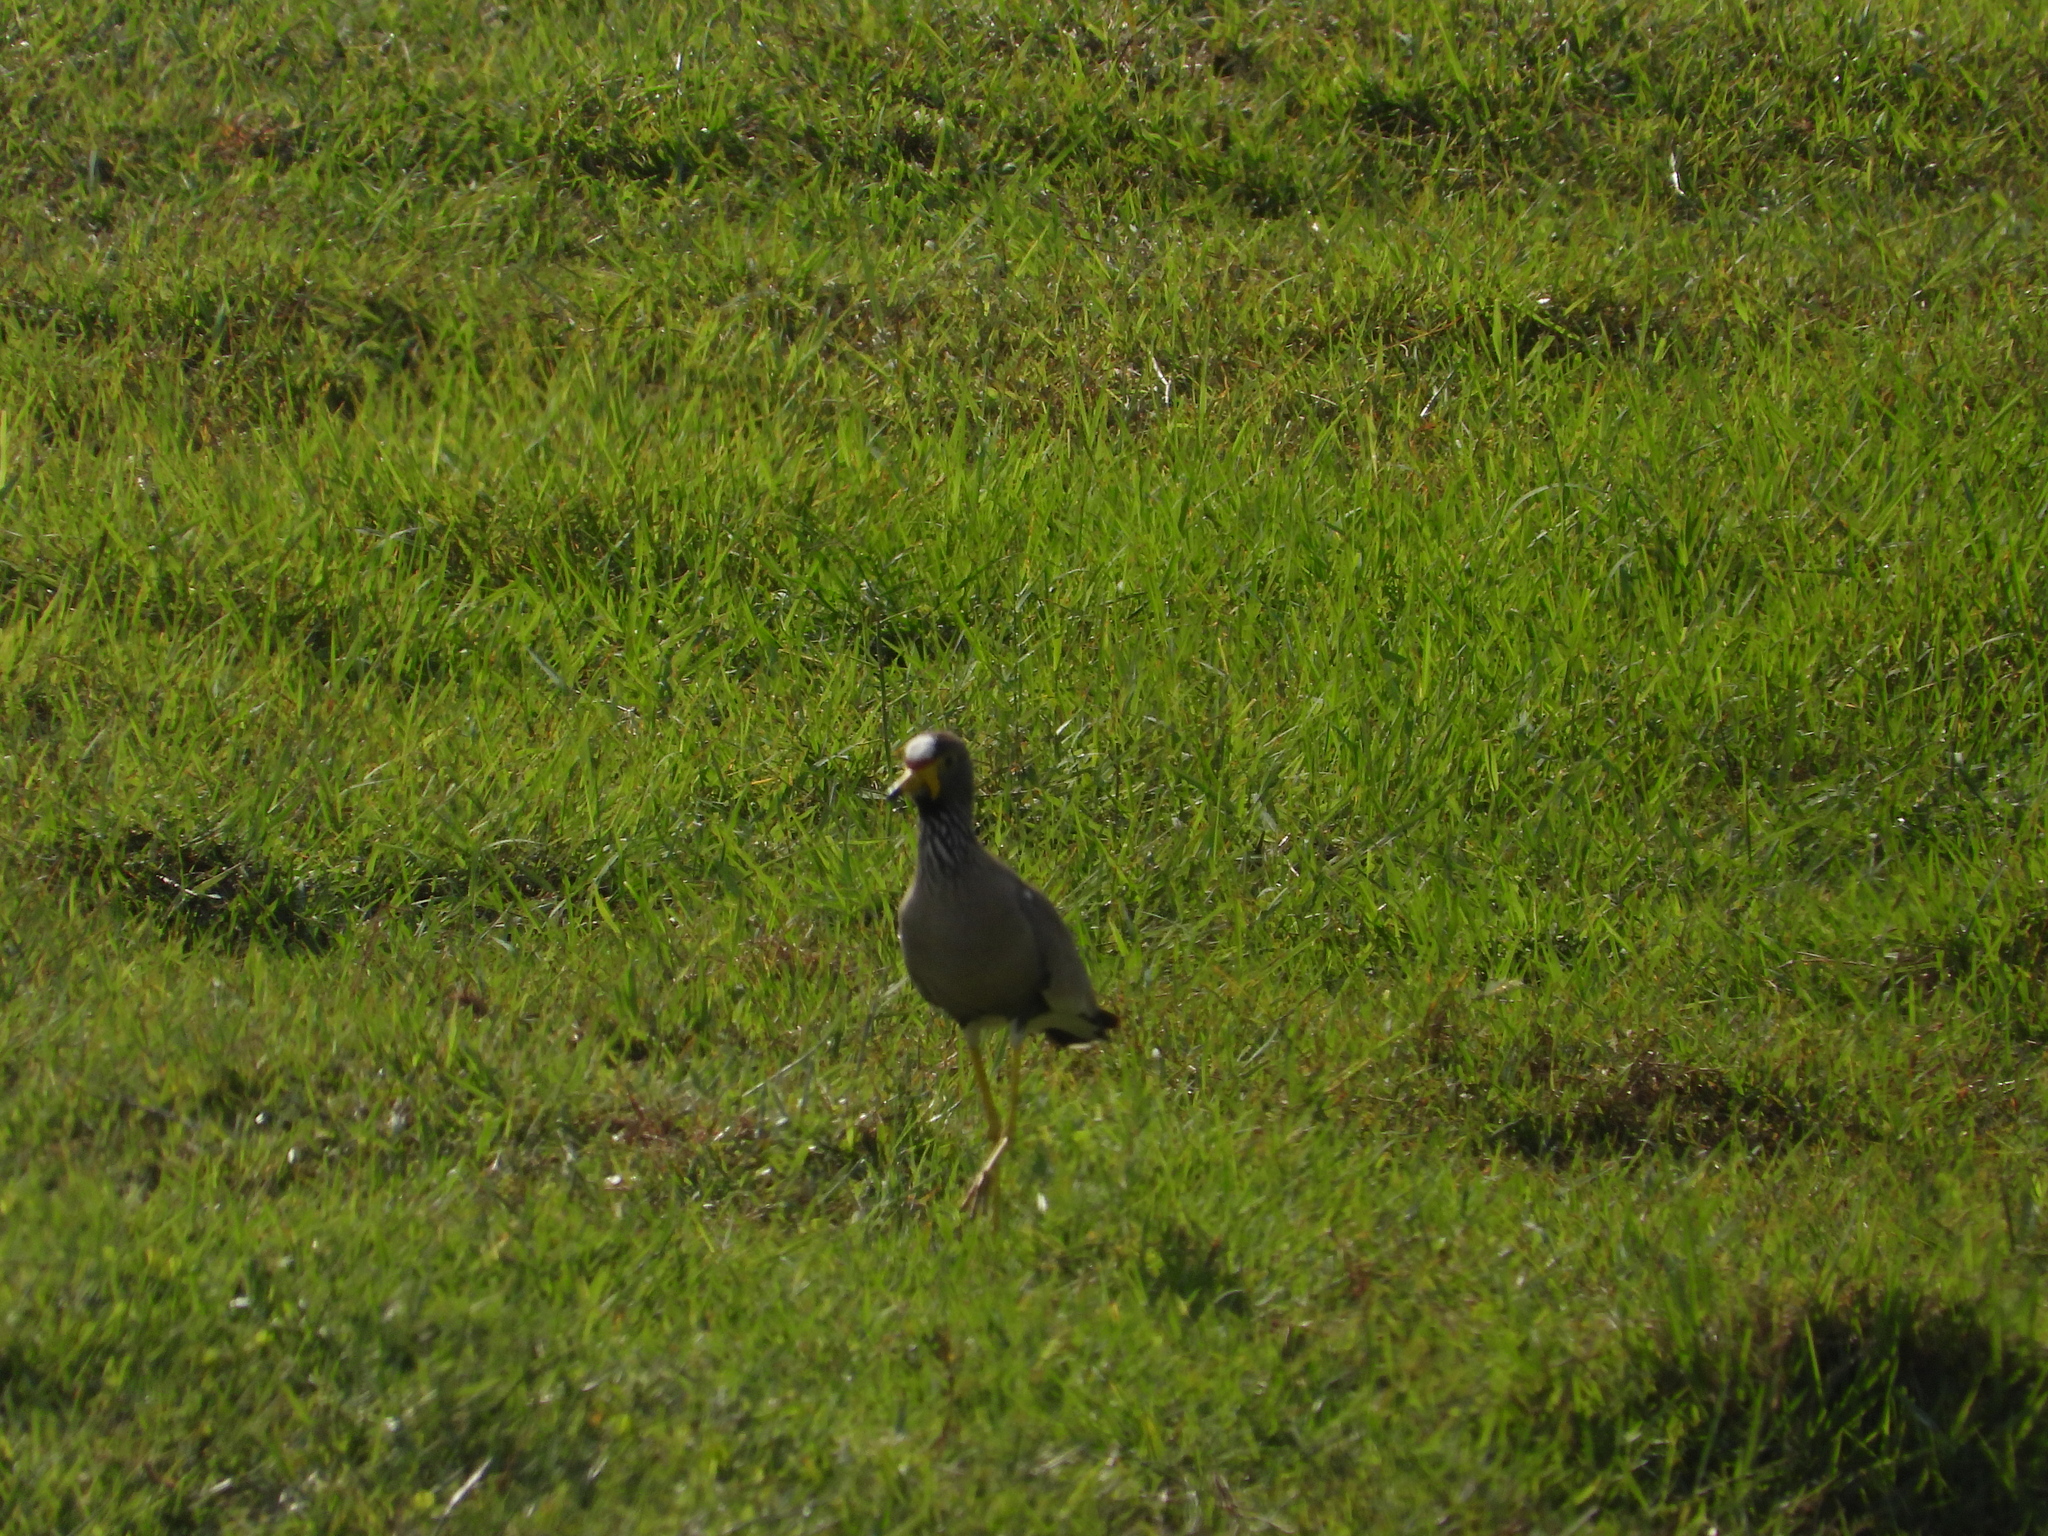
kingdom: Animalia
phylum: Chordata
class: Aves
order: Charadriiformes
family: Charadriidae
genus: Vanellus
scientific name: Vanellus senegallus
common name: African wattled lapwing
